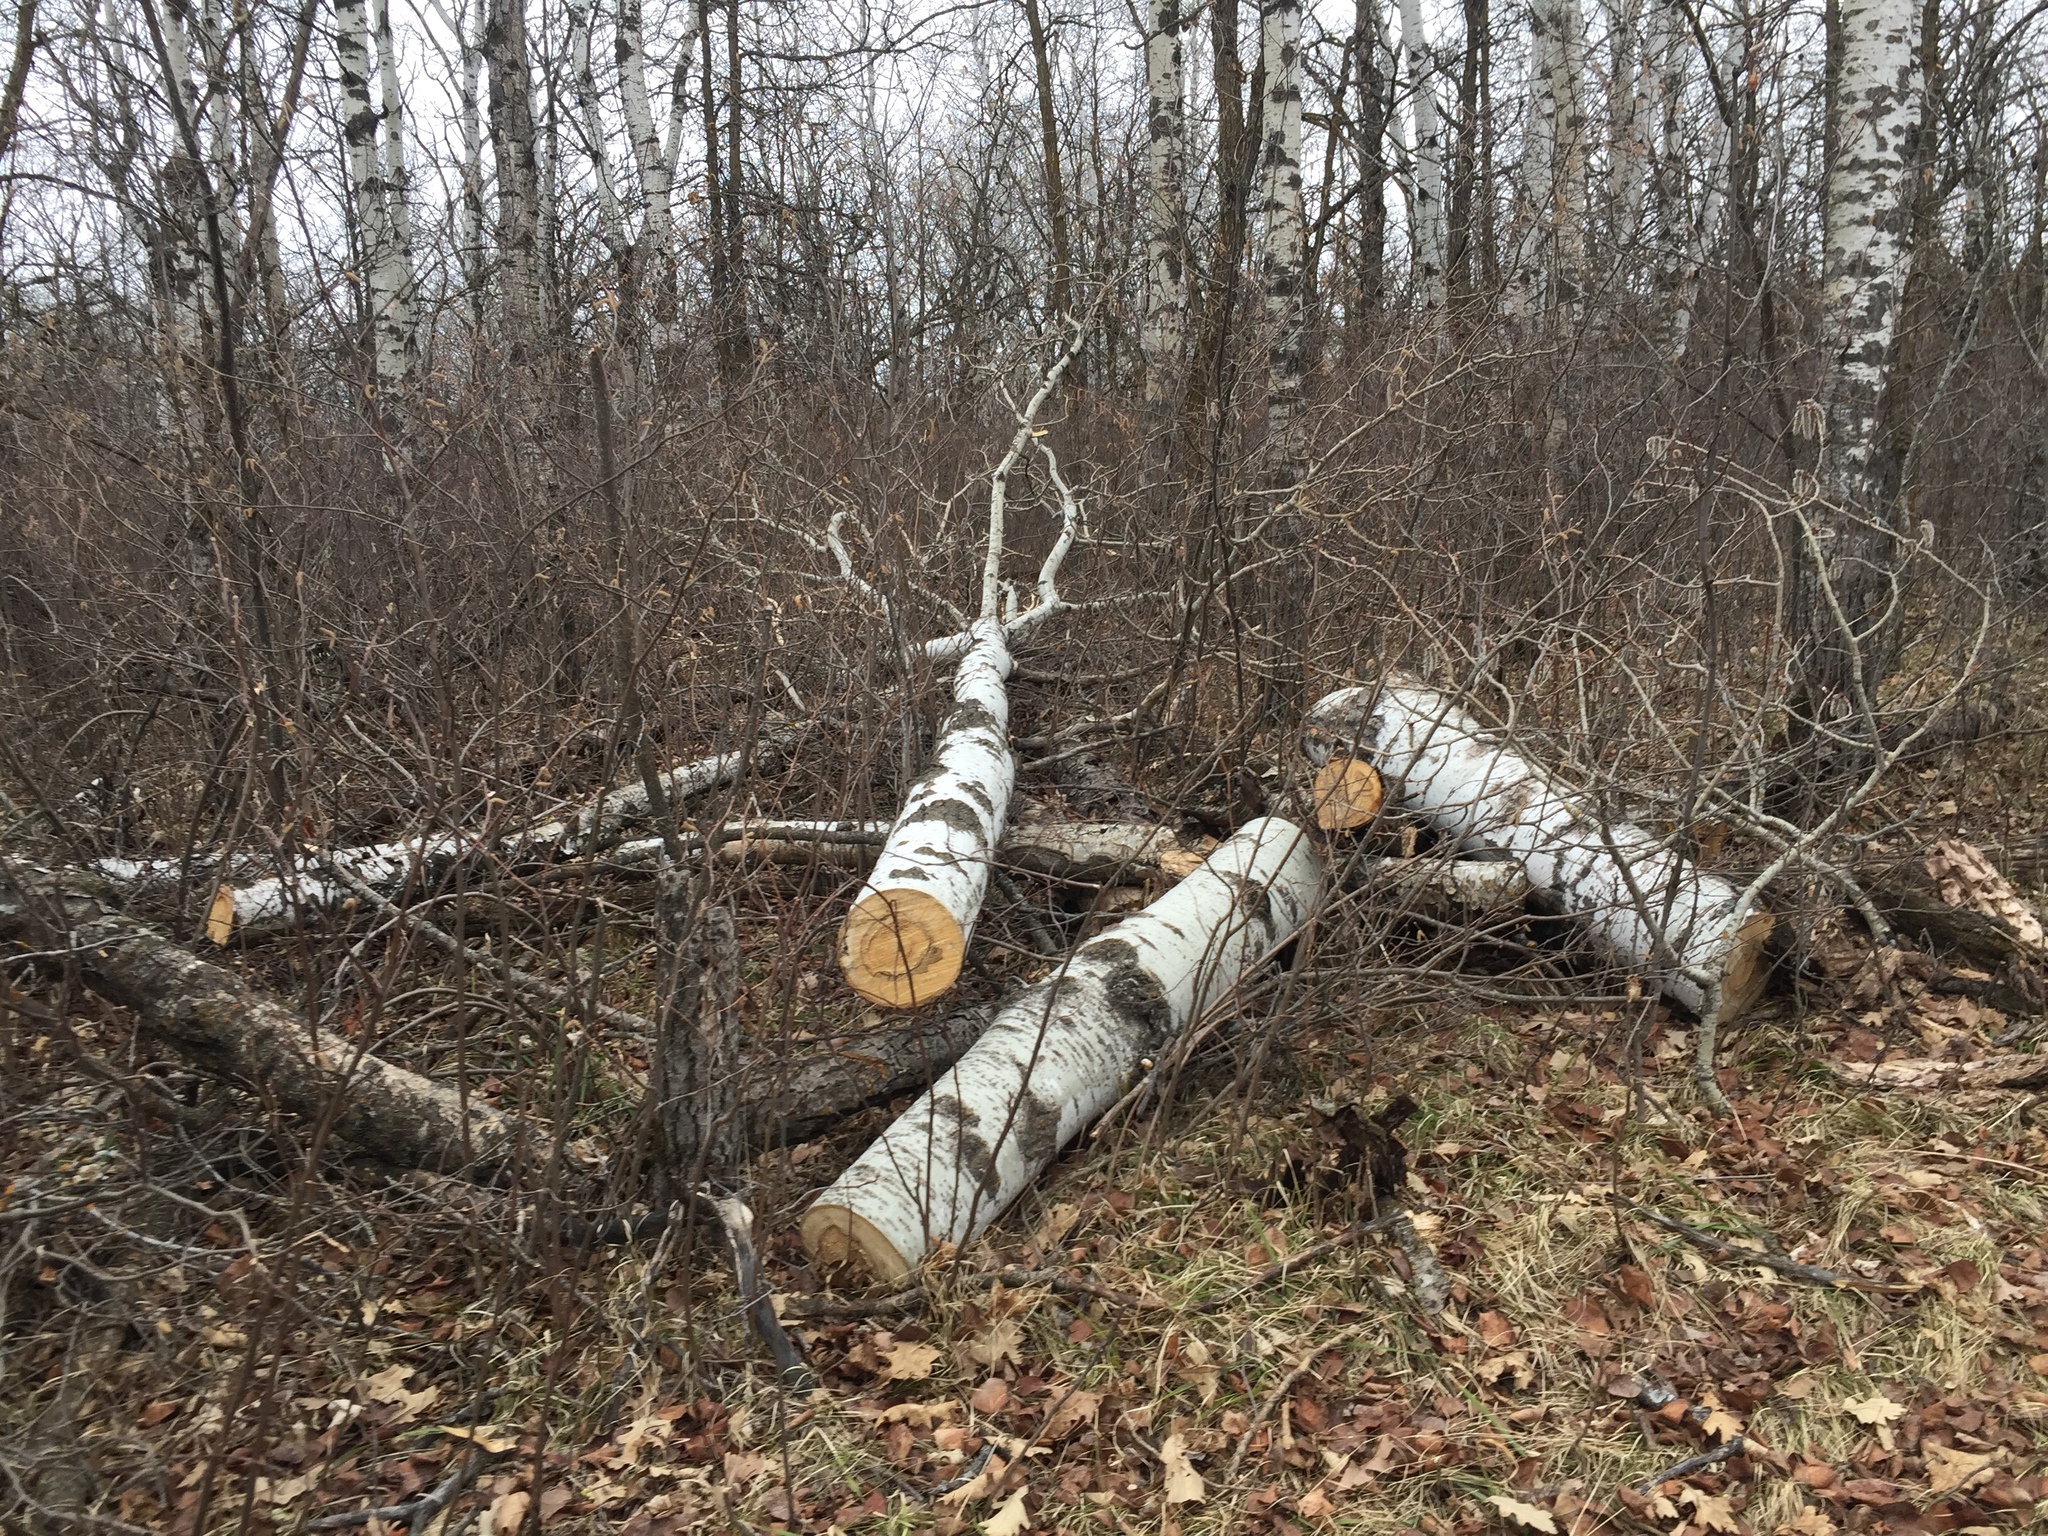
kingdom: Plantae
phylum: Tracheophyta
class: Magnoliopsida
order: Malpighiales
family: Salicaceae
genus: Populus
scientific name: Populus tremuloides
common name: Quaking aspen
